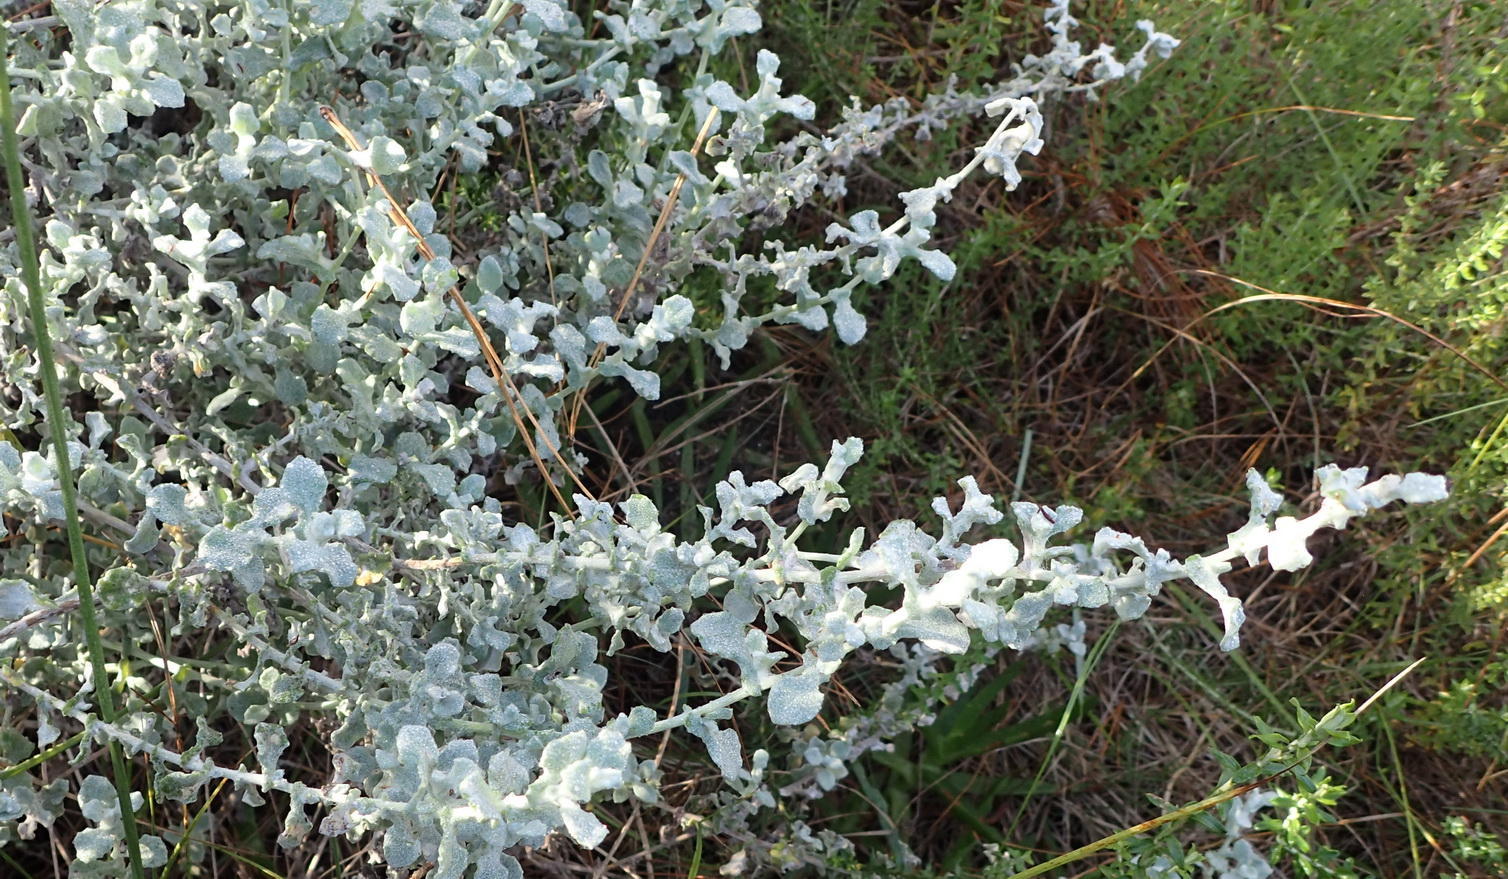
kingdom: Plantae
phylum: Tracheophyta
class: Magnoliopsida
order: Asterales
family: Asteraceae
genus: Helichrysum
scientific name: Helichrysum patulum
